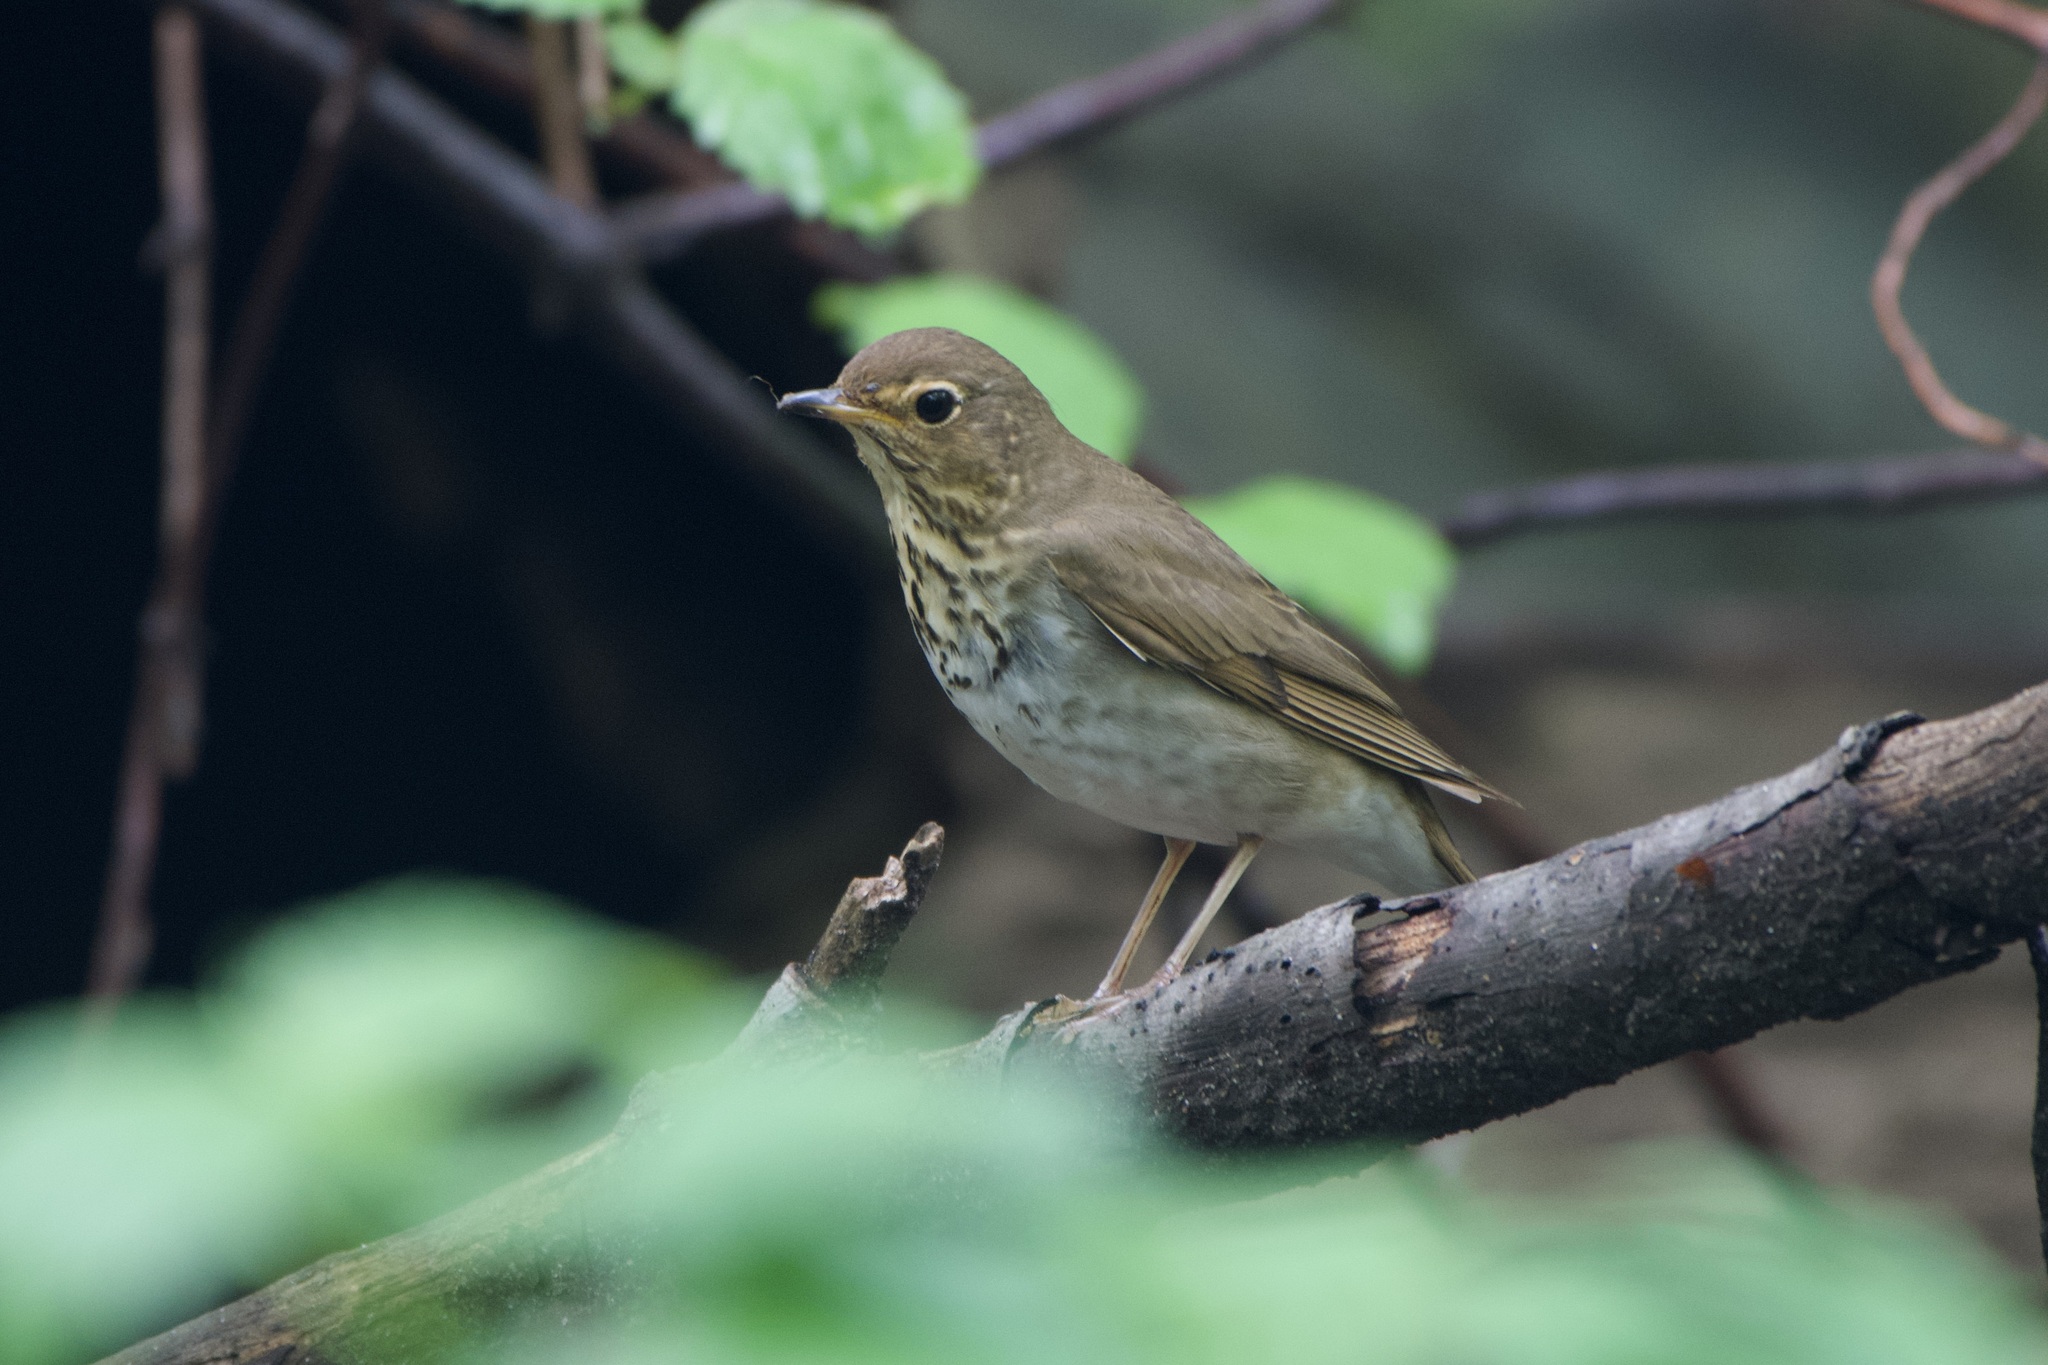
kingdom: Animalia
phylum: Chordata
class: Aves
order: Passeriformes
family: Turdidae
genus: Catharus
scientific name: Catharus ustulatus
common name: Swainson's thrush
